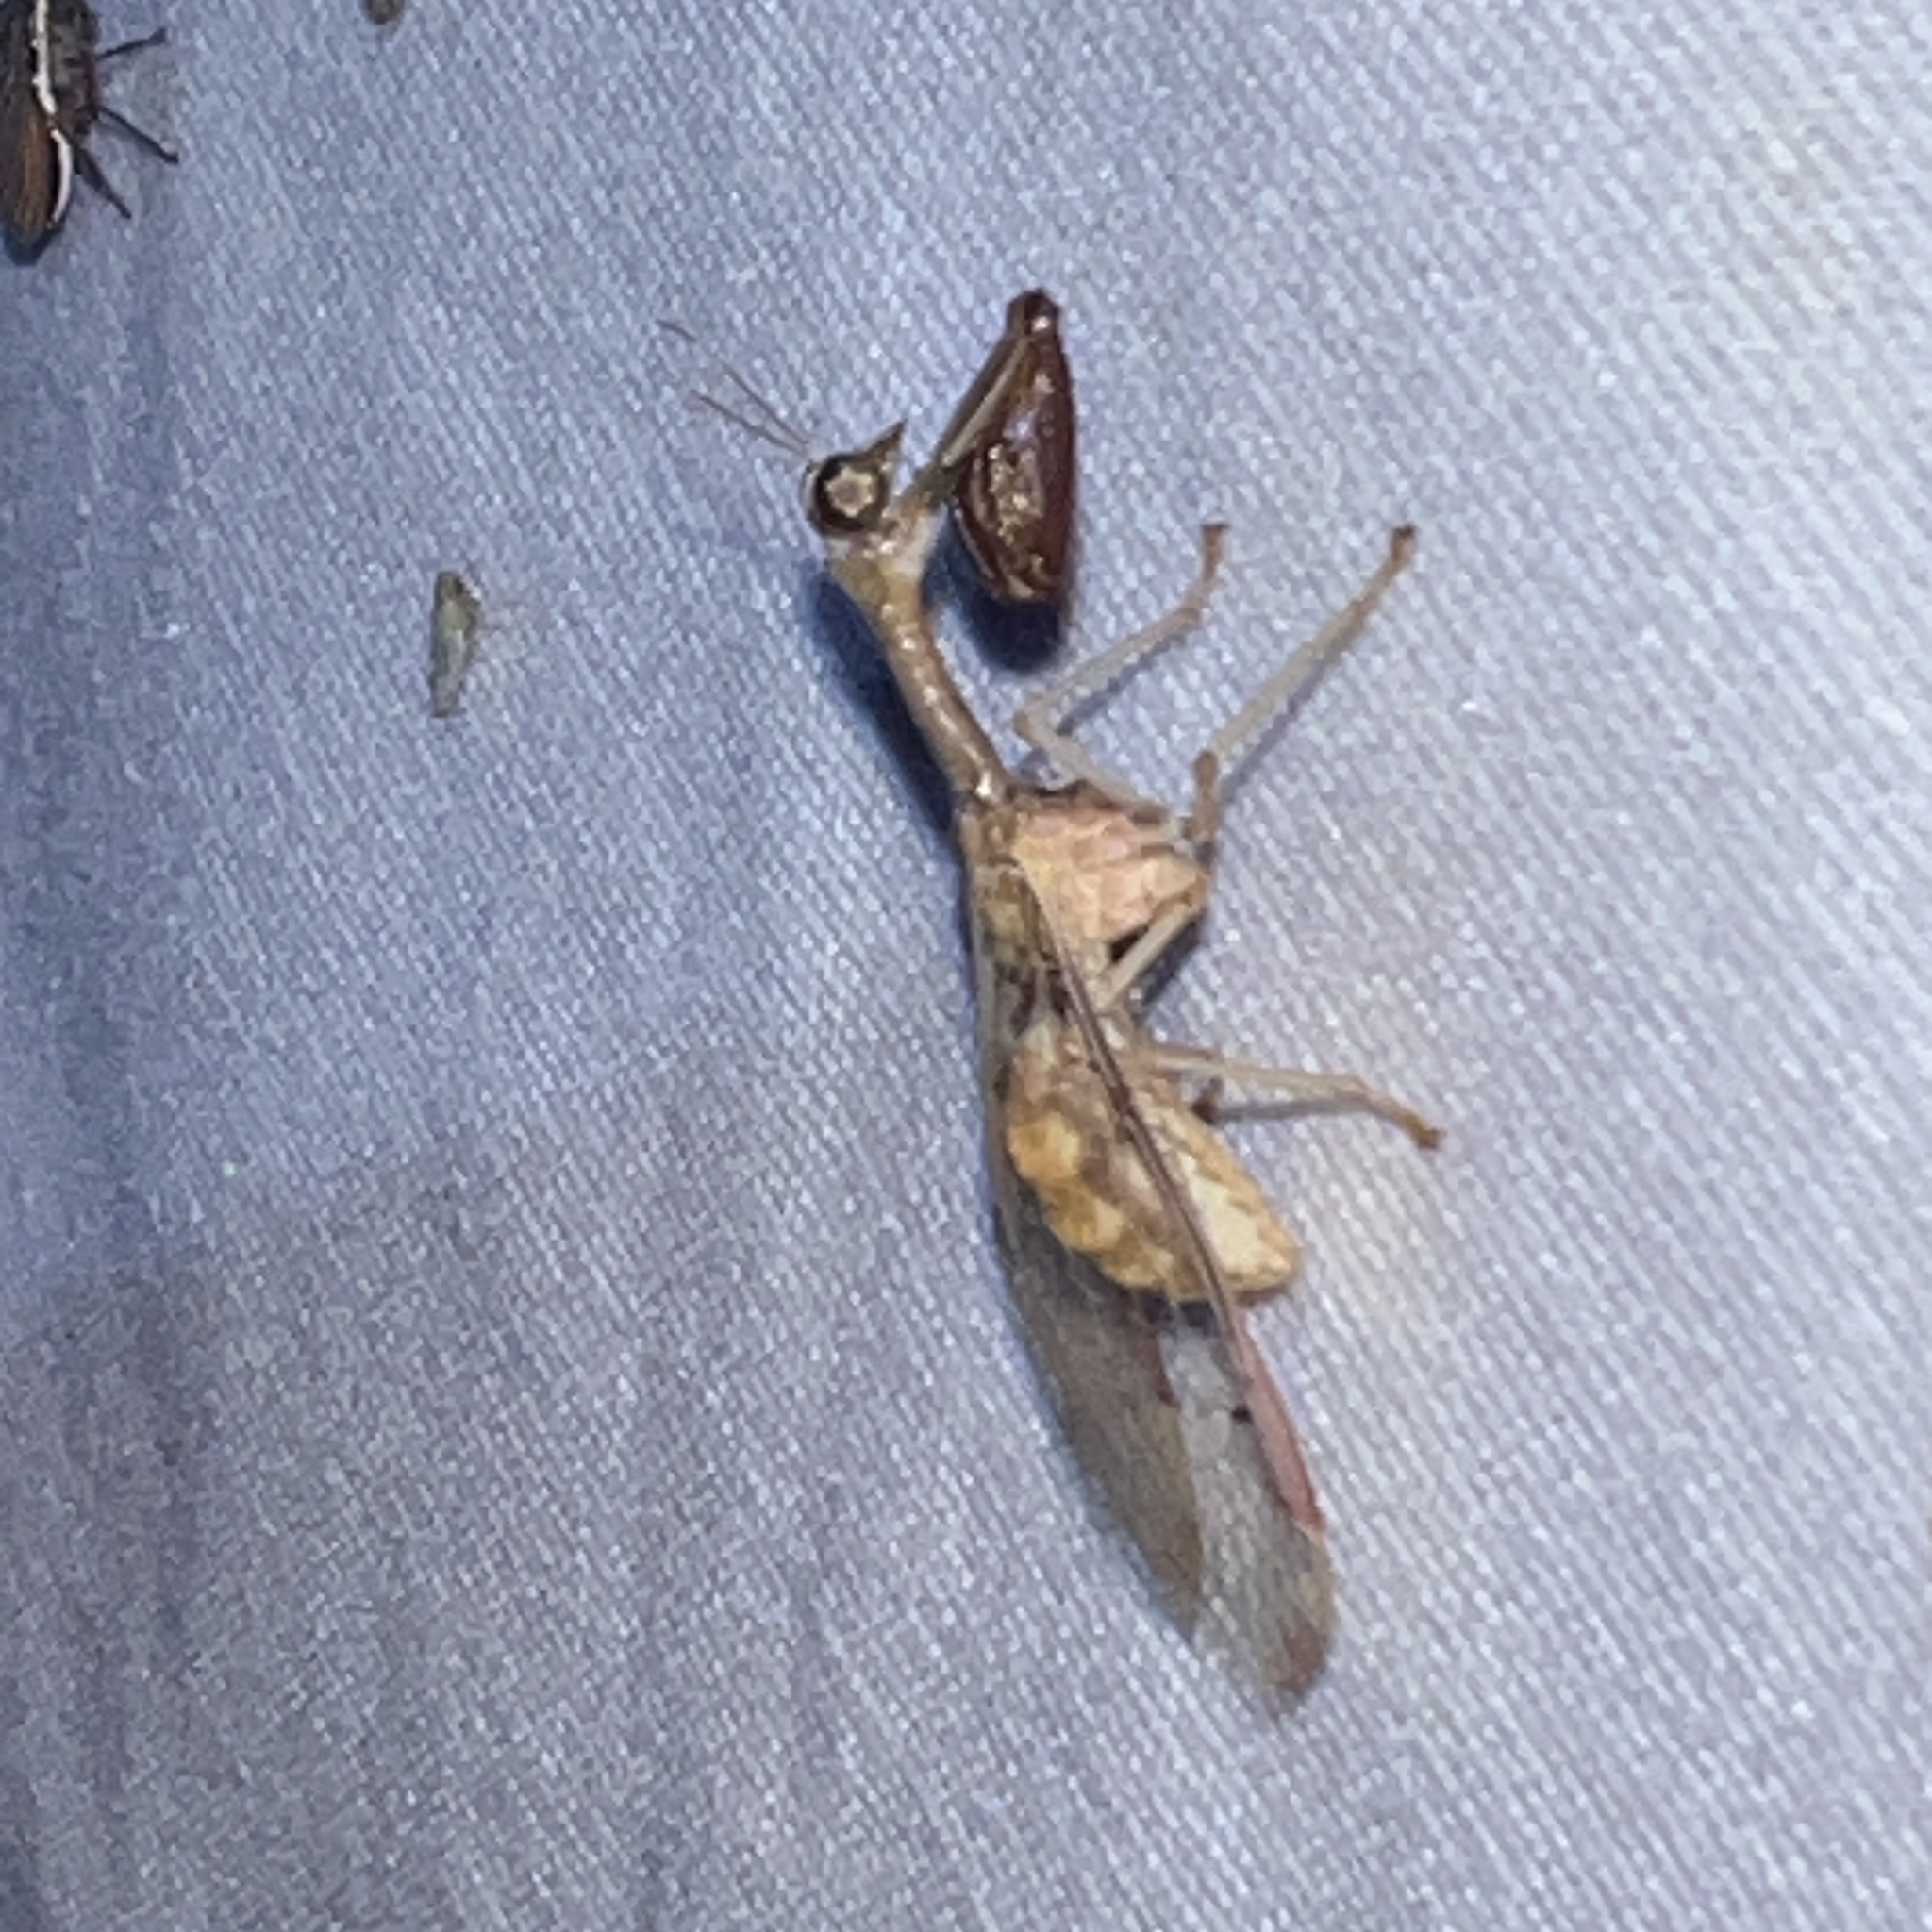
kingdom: Animalia
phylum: Arthropoda
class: Insecta
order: Neuroptera
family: Mantispidae
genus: Dicromantispa
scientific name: Dicromantispa interrupta
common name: Four-spotted mantidfly
